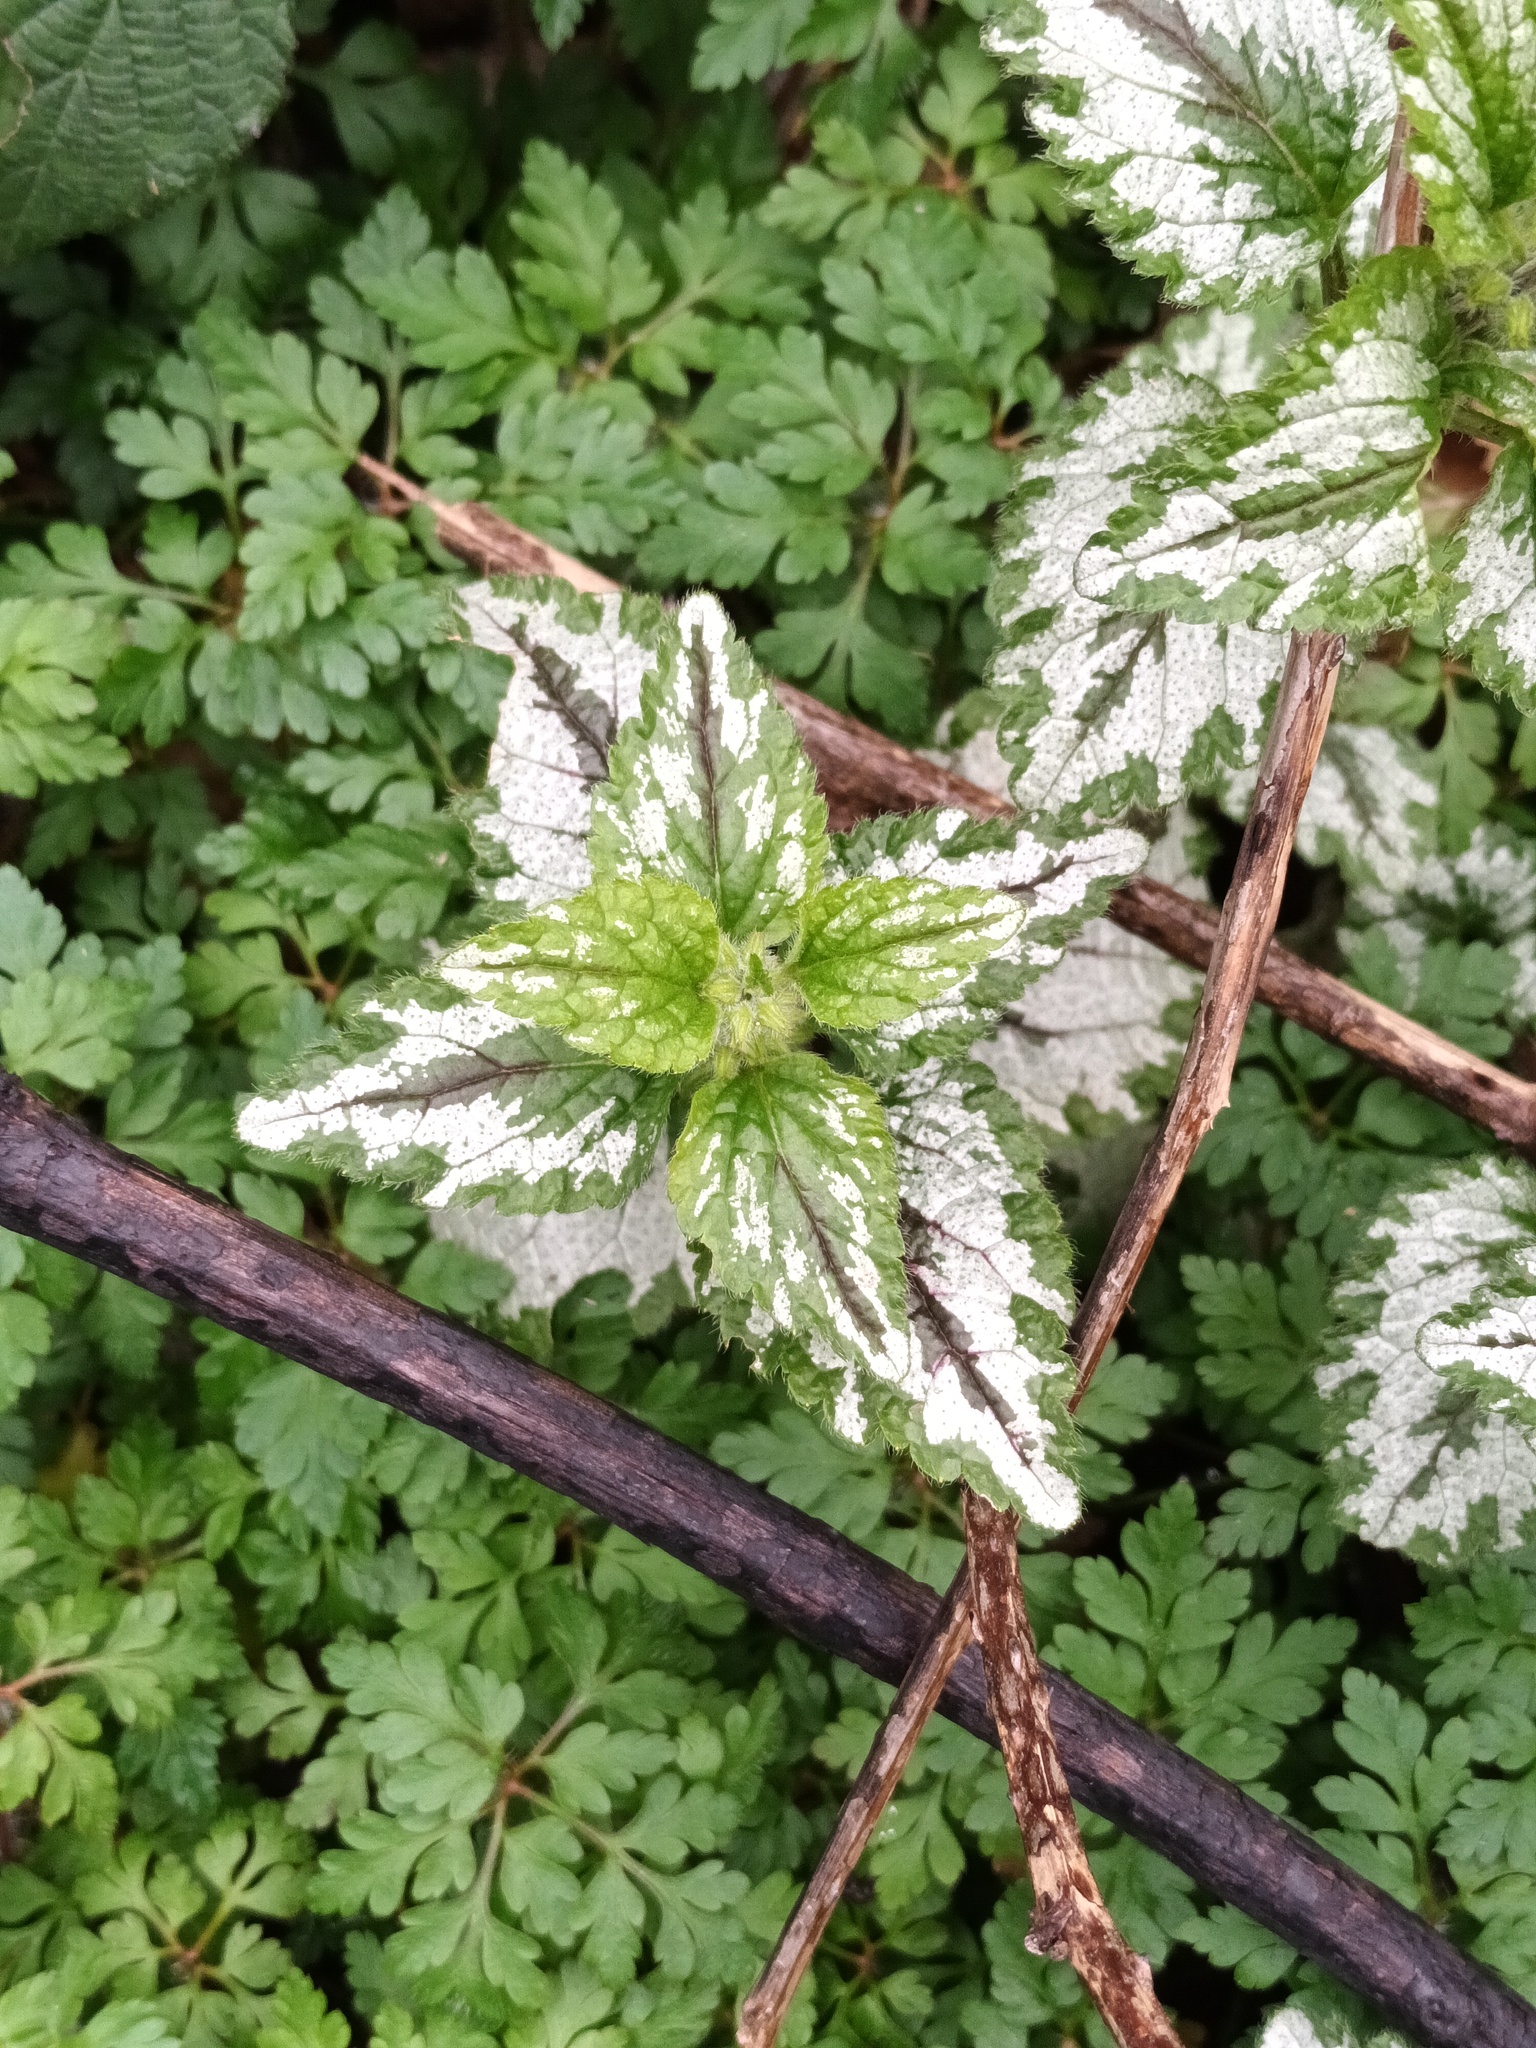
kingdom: Plantae
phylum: Tracheophyta
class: Magnoliopsida
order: Lamiales
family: Lamiaceae
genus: Lamium
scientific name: Lamium galeobdolon
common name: Yellow archangel
